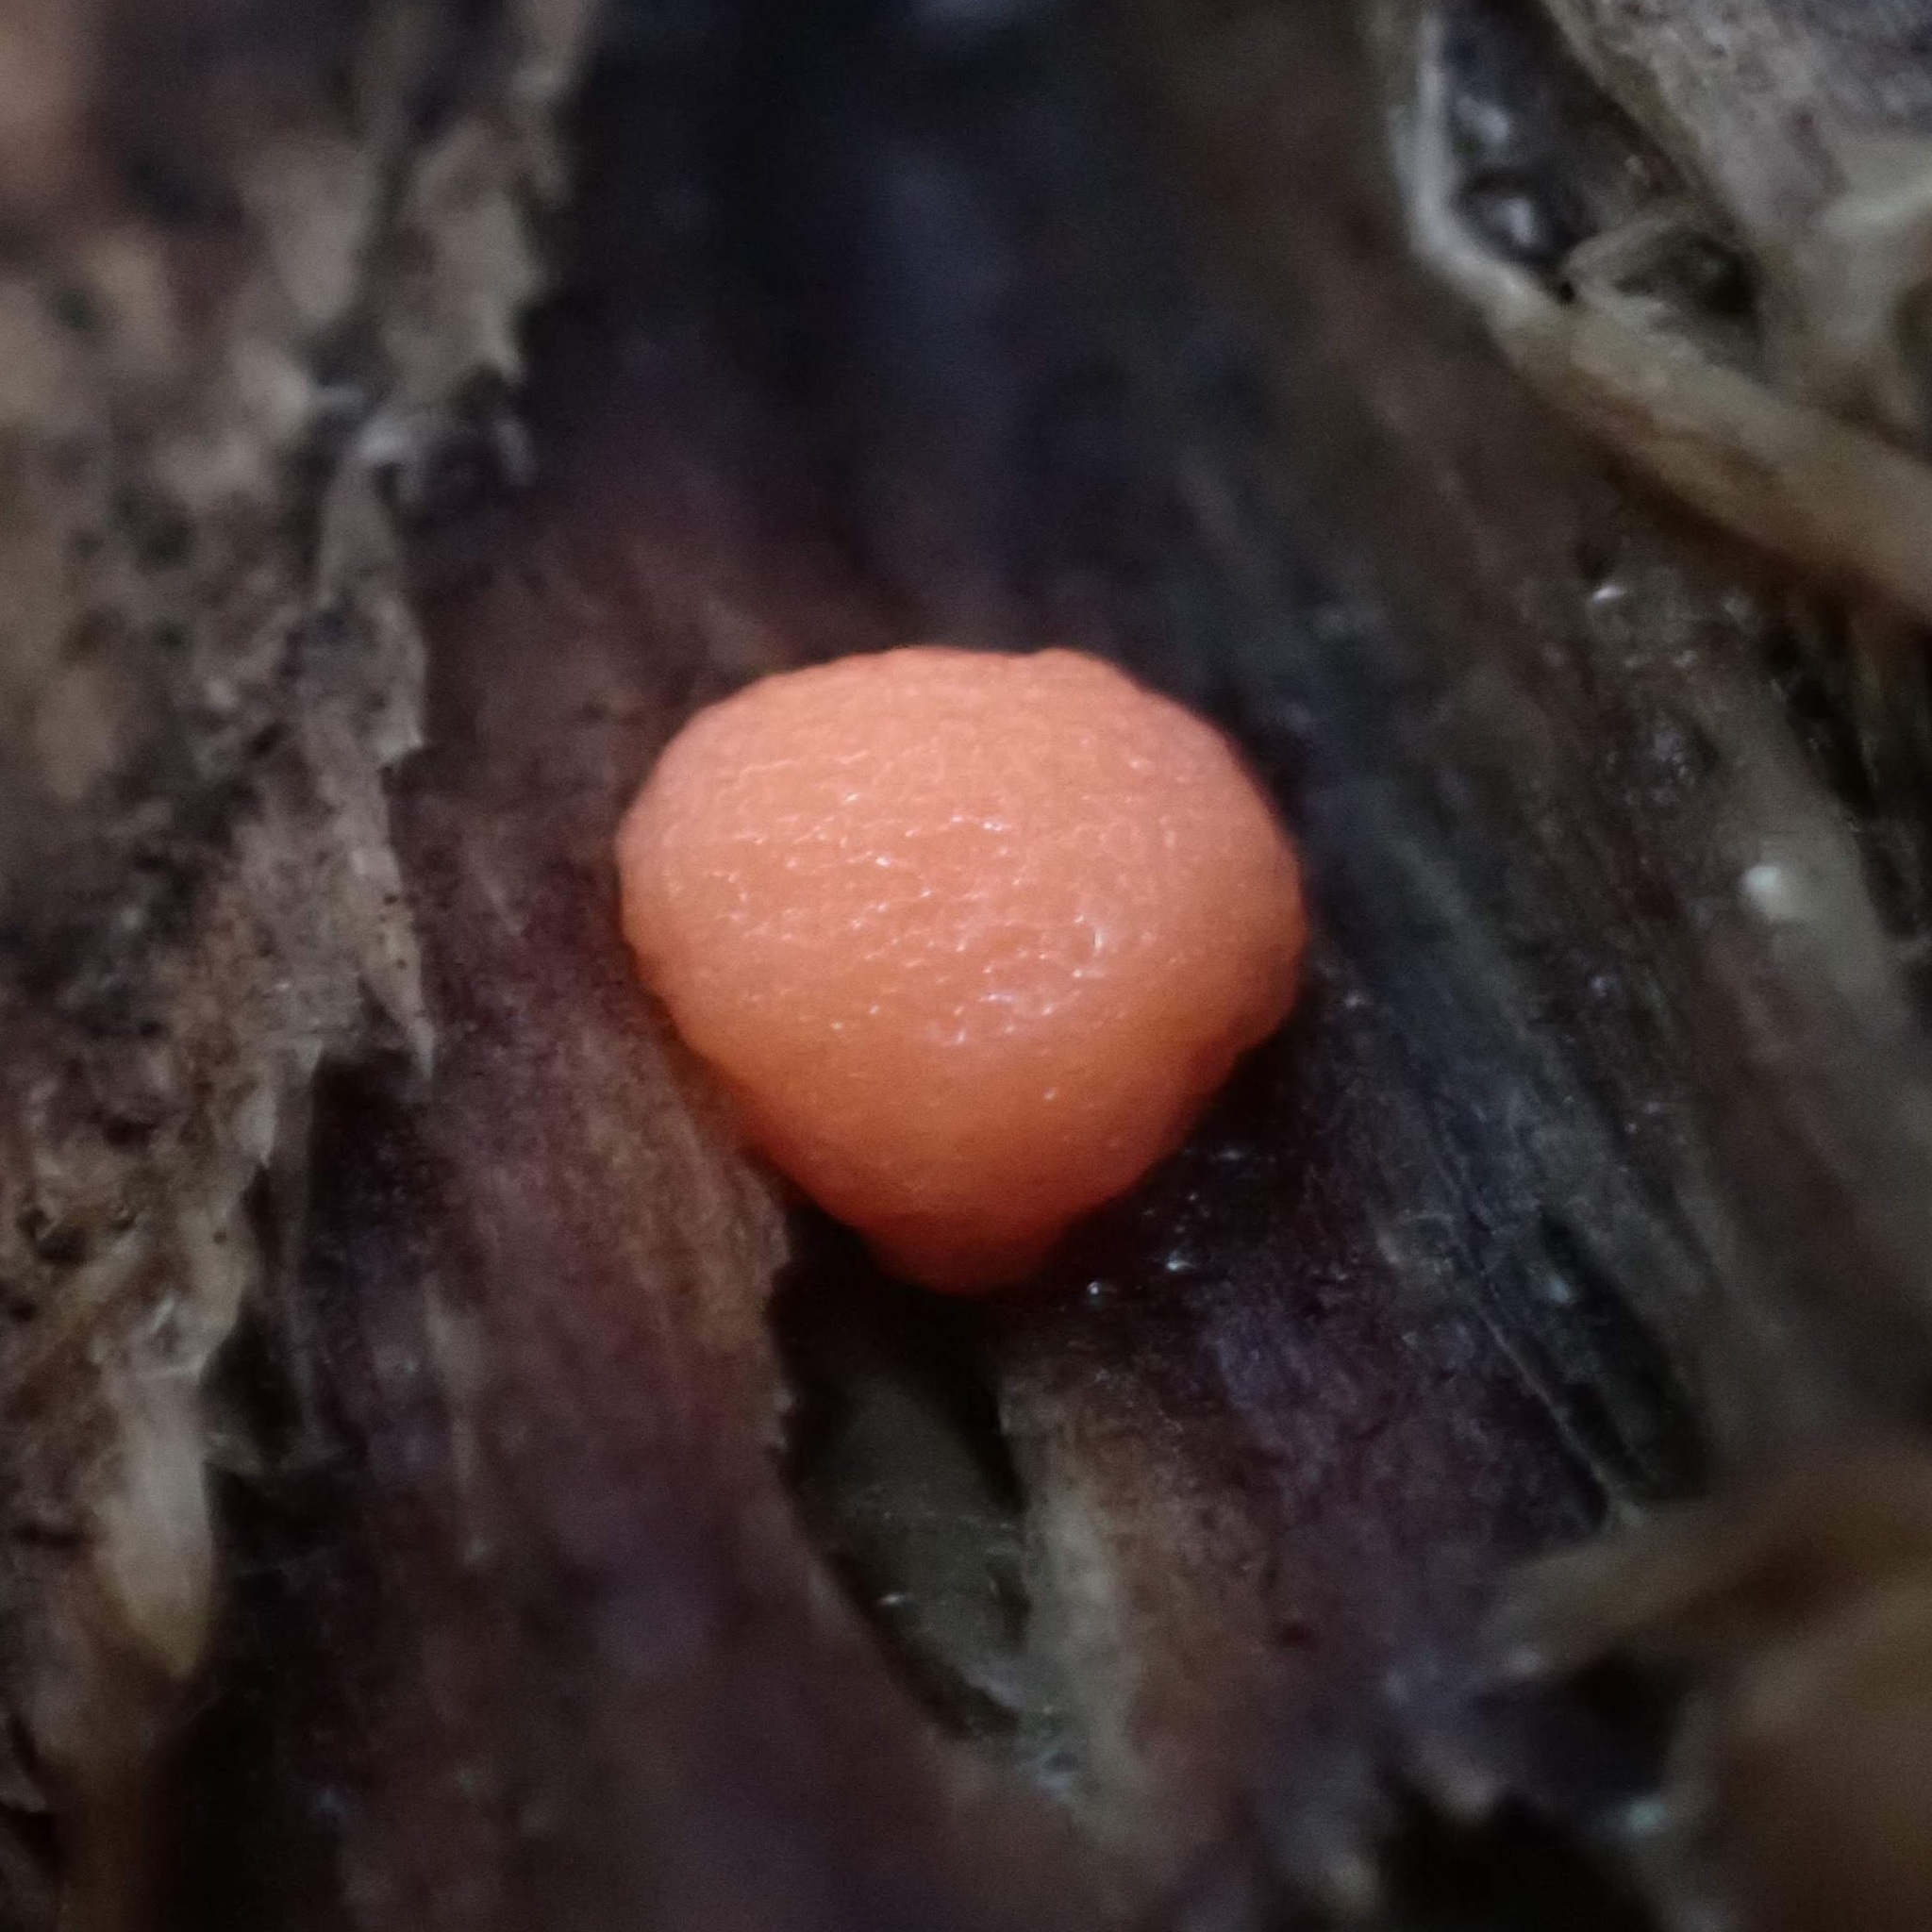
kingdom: Protozoa
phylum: Mycetozoa
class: Myxomycetes
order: Cribrariales
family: Tubiferaceae
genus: Lycogala
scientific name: Lycogala
